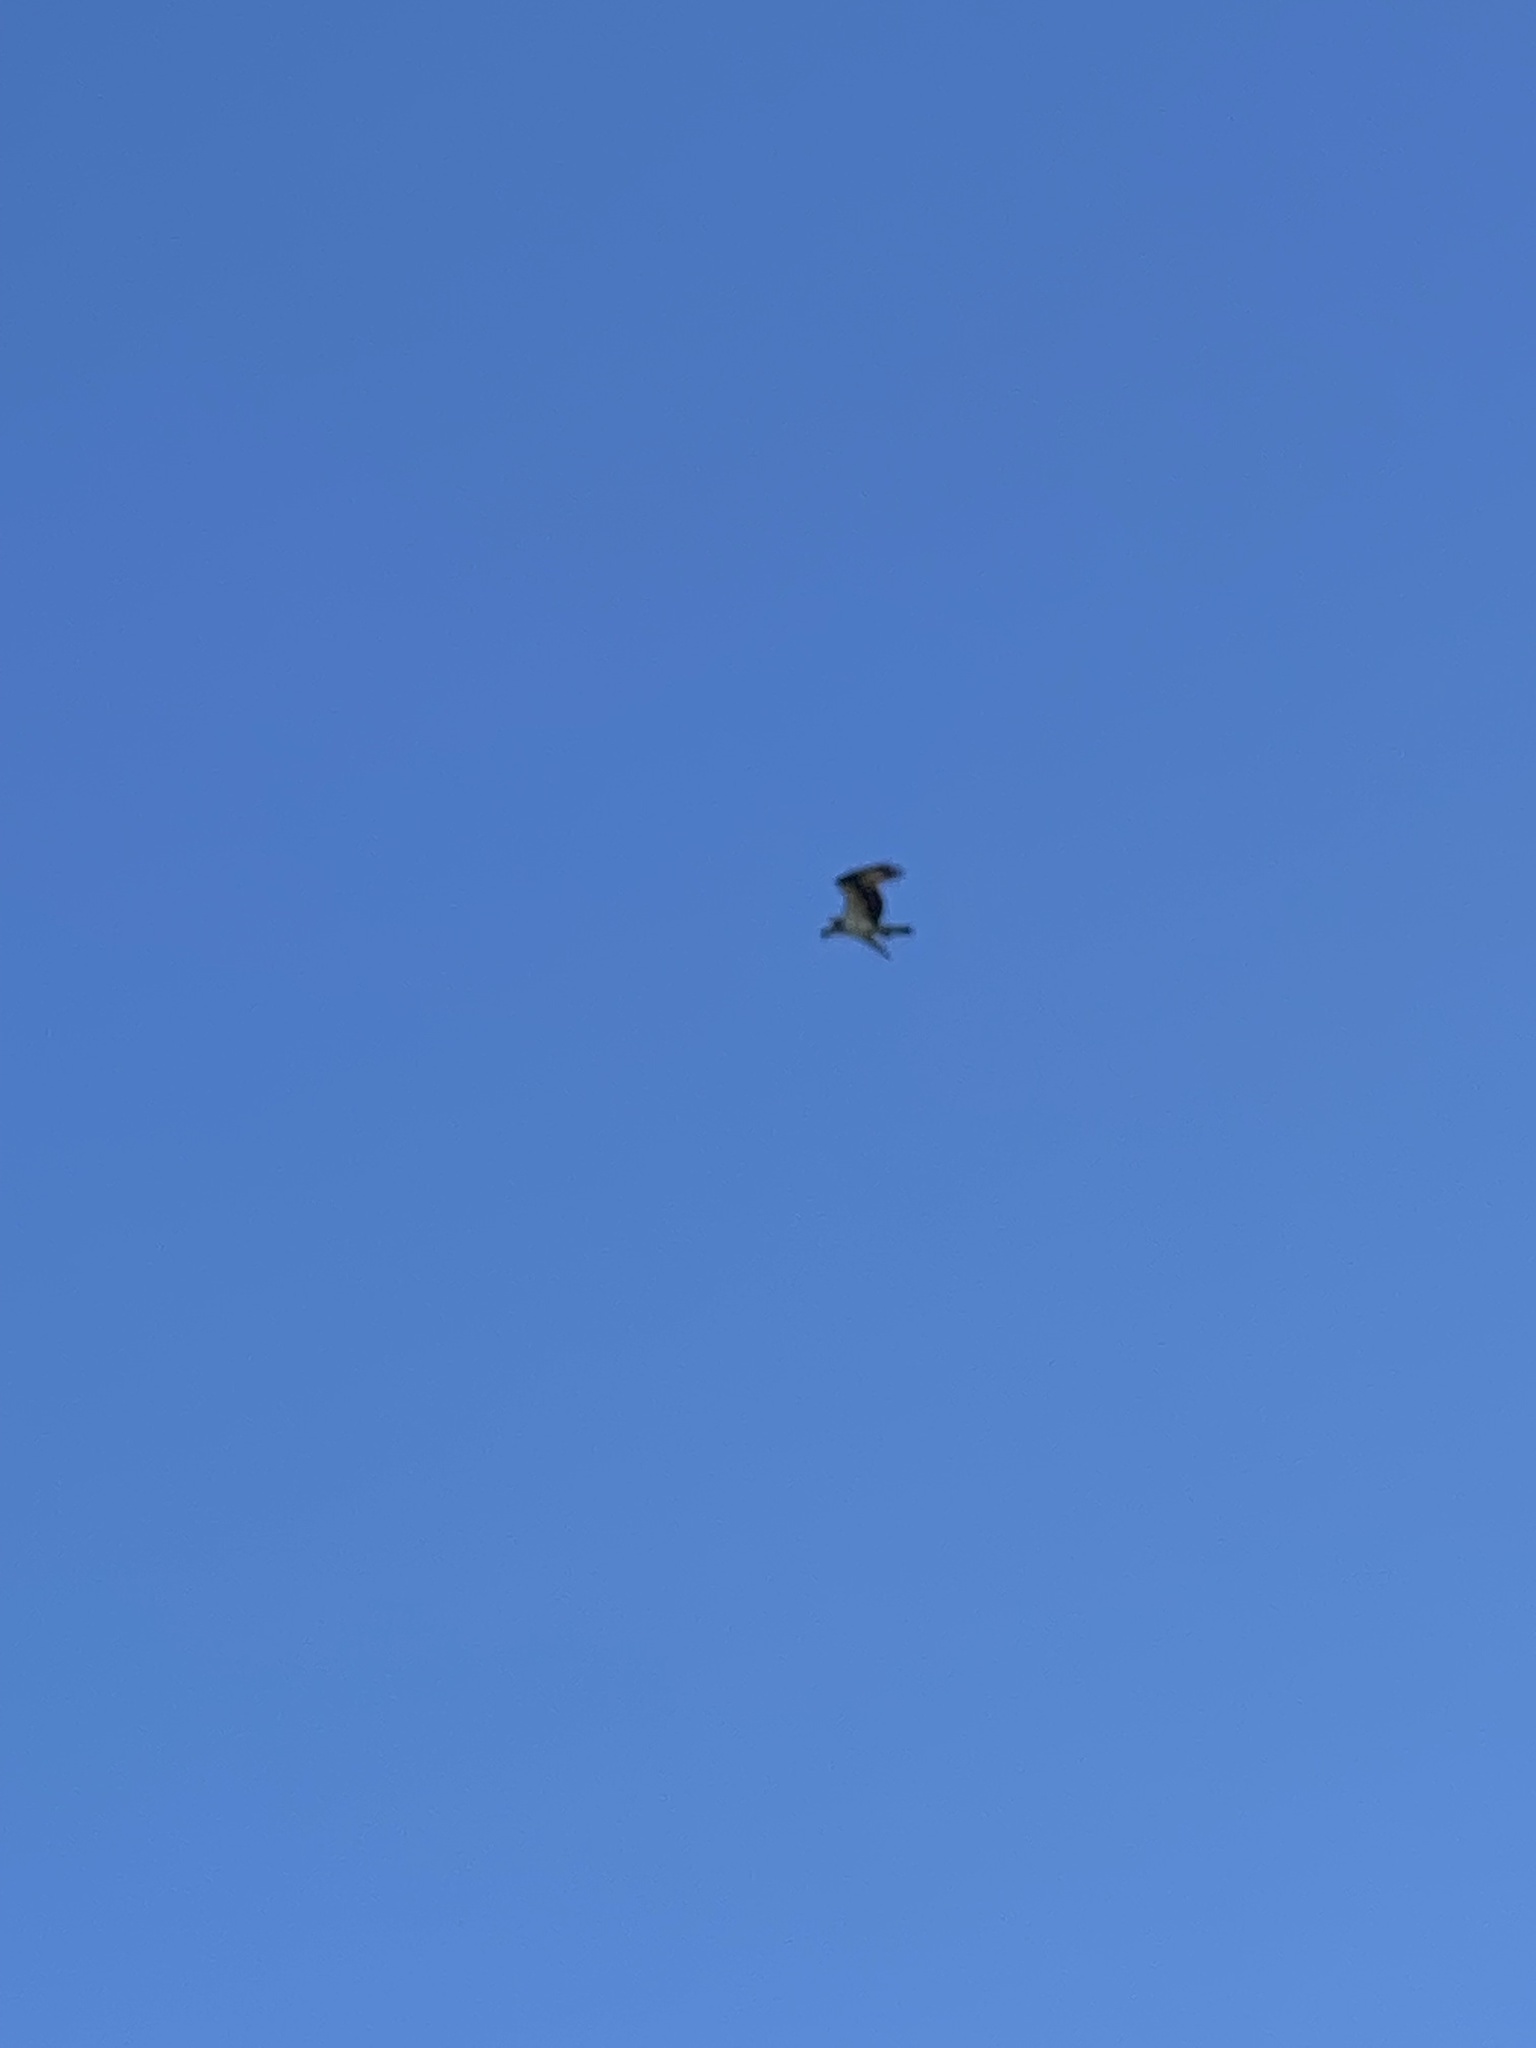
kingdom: Animalia
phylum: Chordata
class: Aves
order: Accipitriformes
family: Pandionidae
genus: Pandion
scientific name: Pandion haliaetus
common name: Osprey
